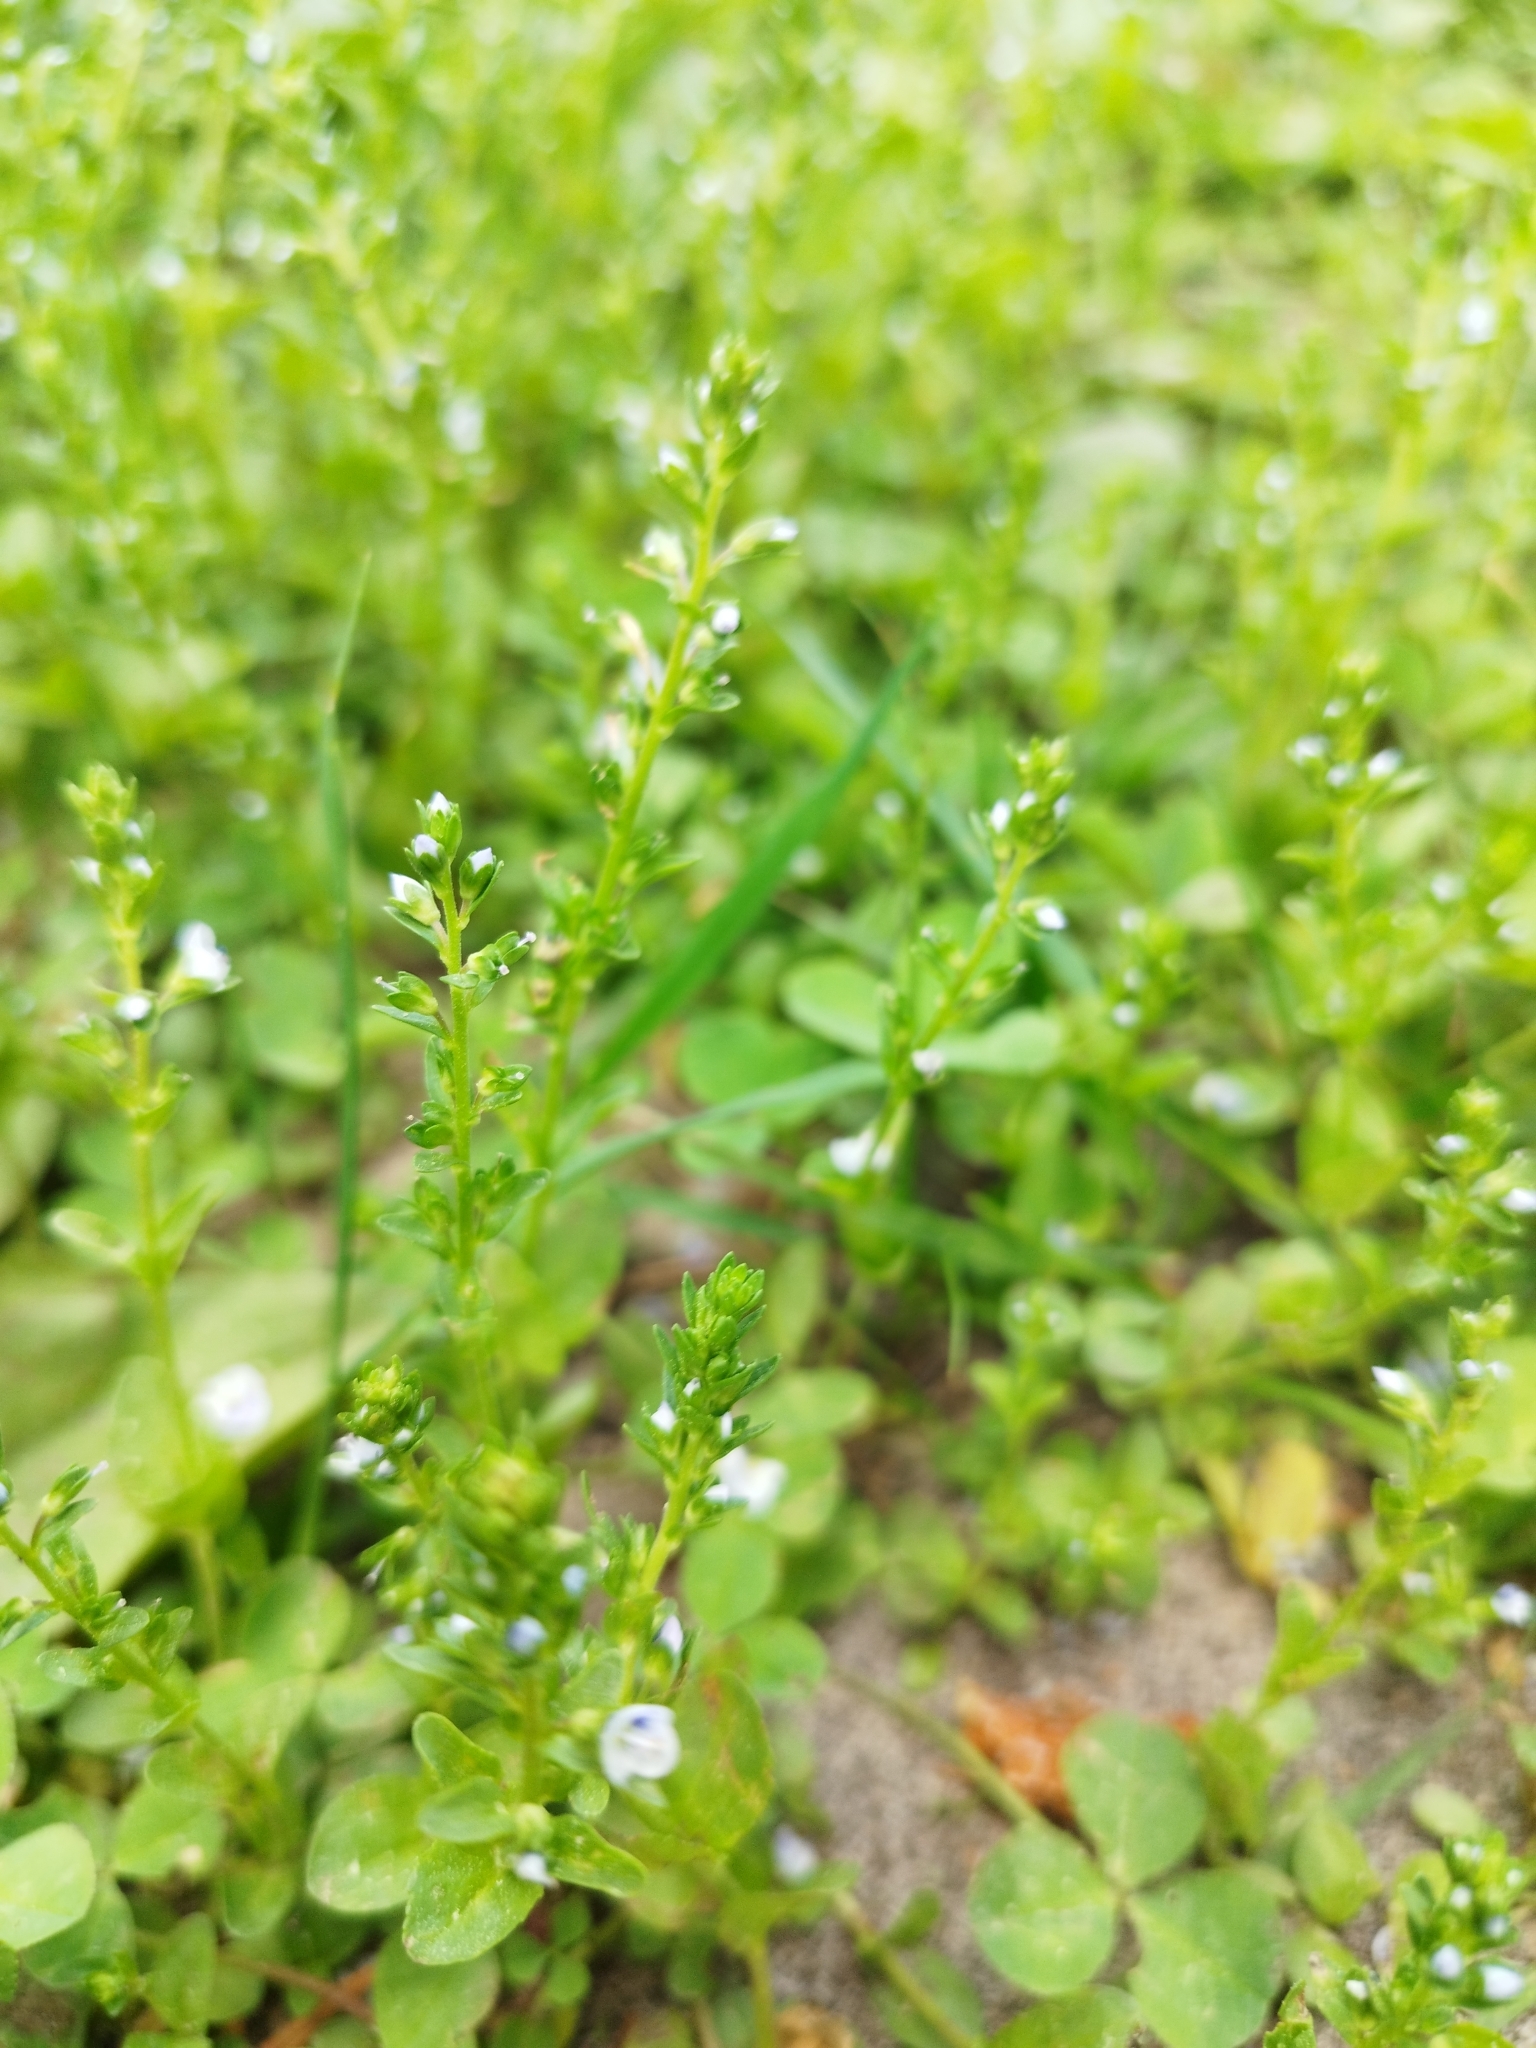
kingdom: Plantae
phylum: Tracheophyta
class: Magnoliopsida
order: Lamiales
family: Plantaginaceae
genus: Veronica
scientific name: Veronica serpyllifolia
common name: Thyme-leaved speedwell
